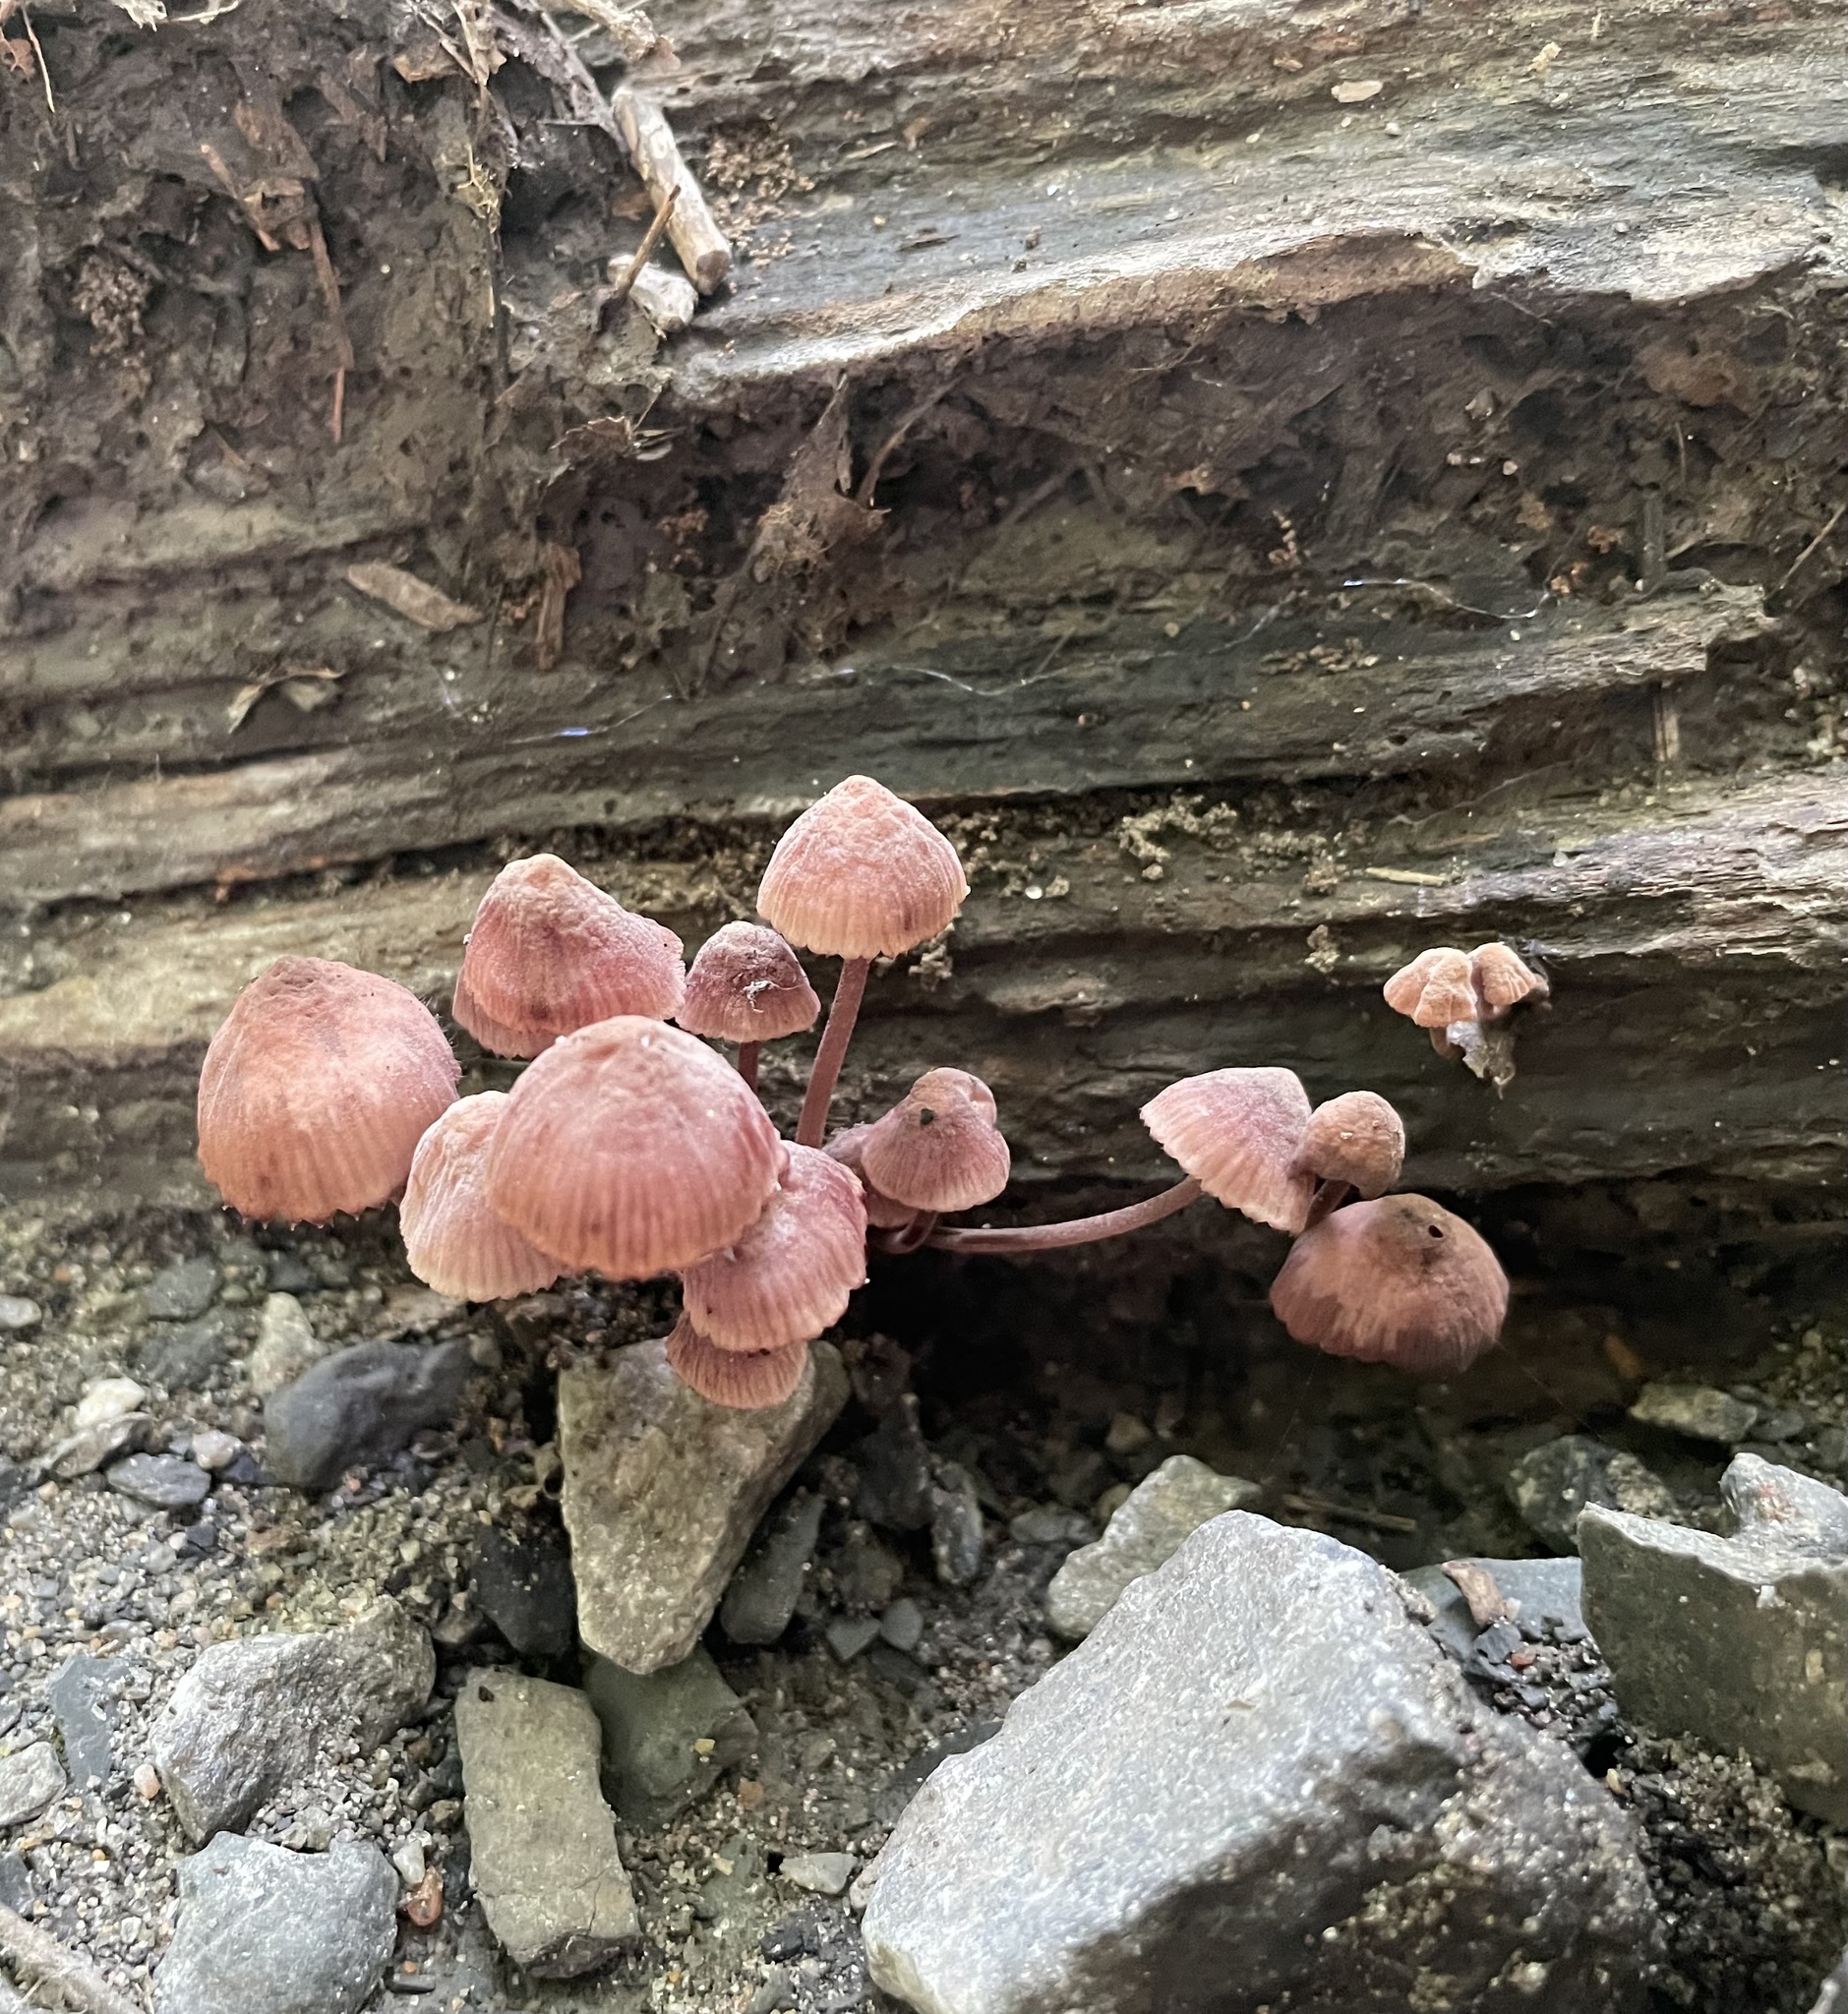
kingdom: Fungi
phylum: Basidiomycota
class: Agaricomycetes
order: Agaricales
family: Mycenaceae
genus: Mycena
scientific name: Mycena haematopus
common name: Burgundydrop bonnet
